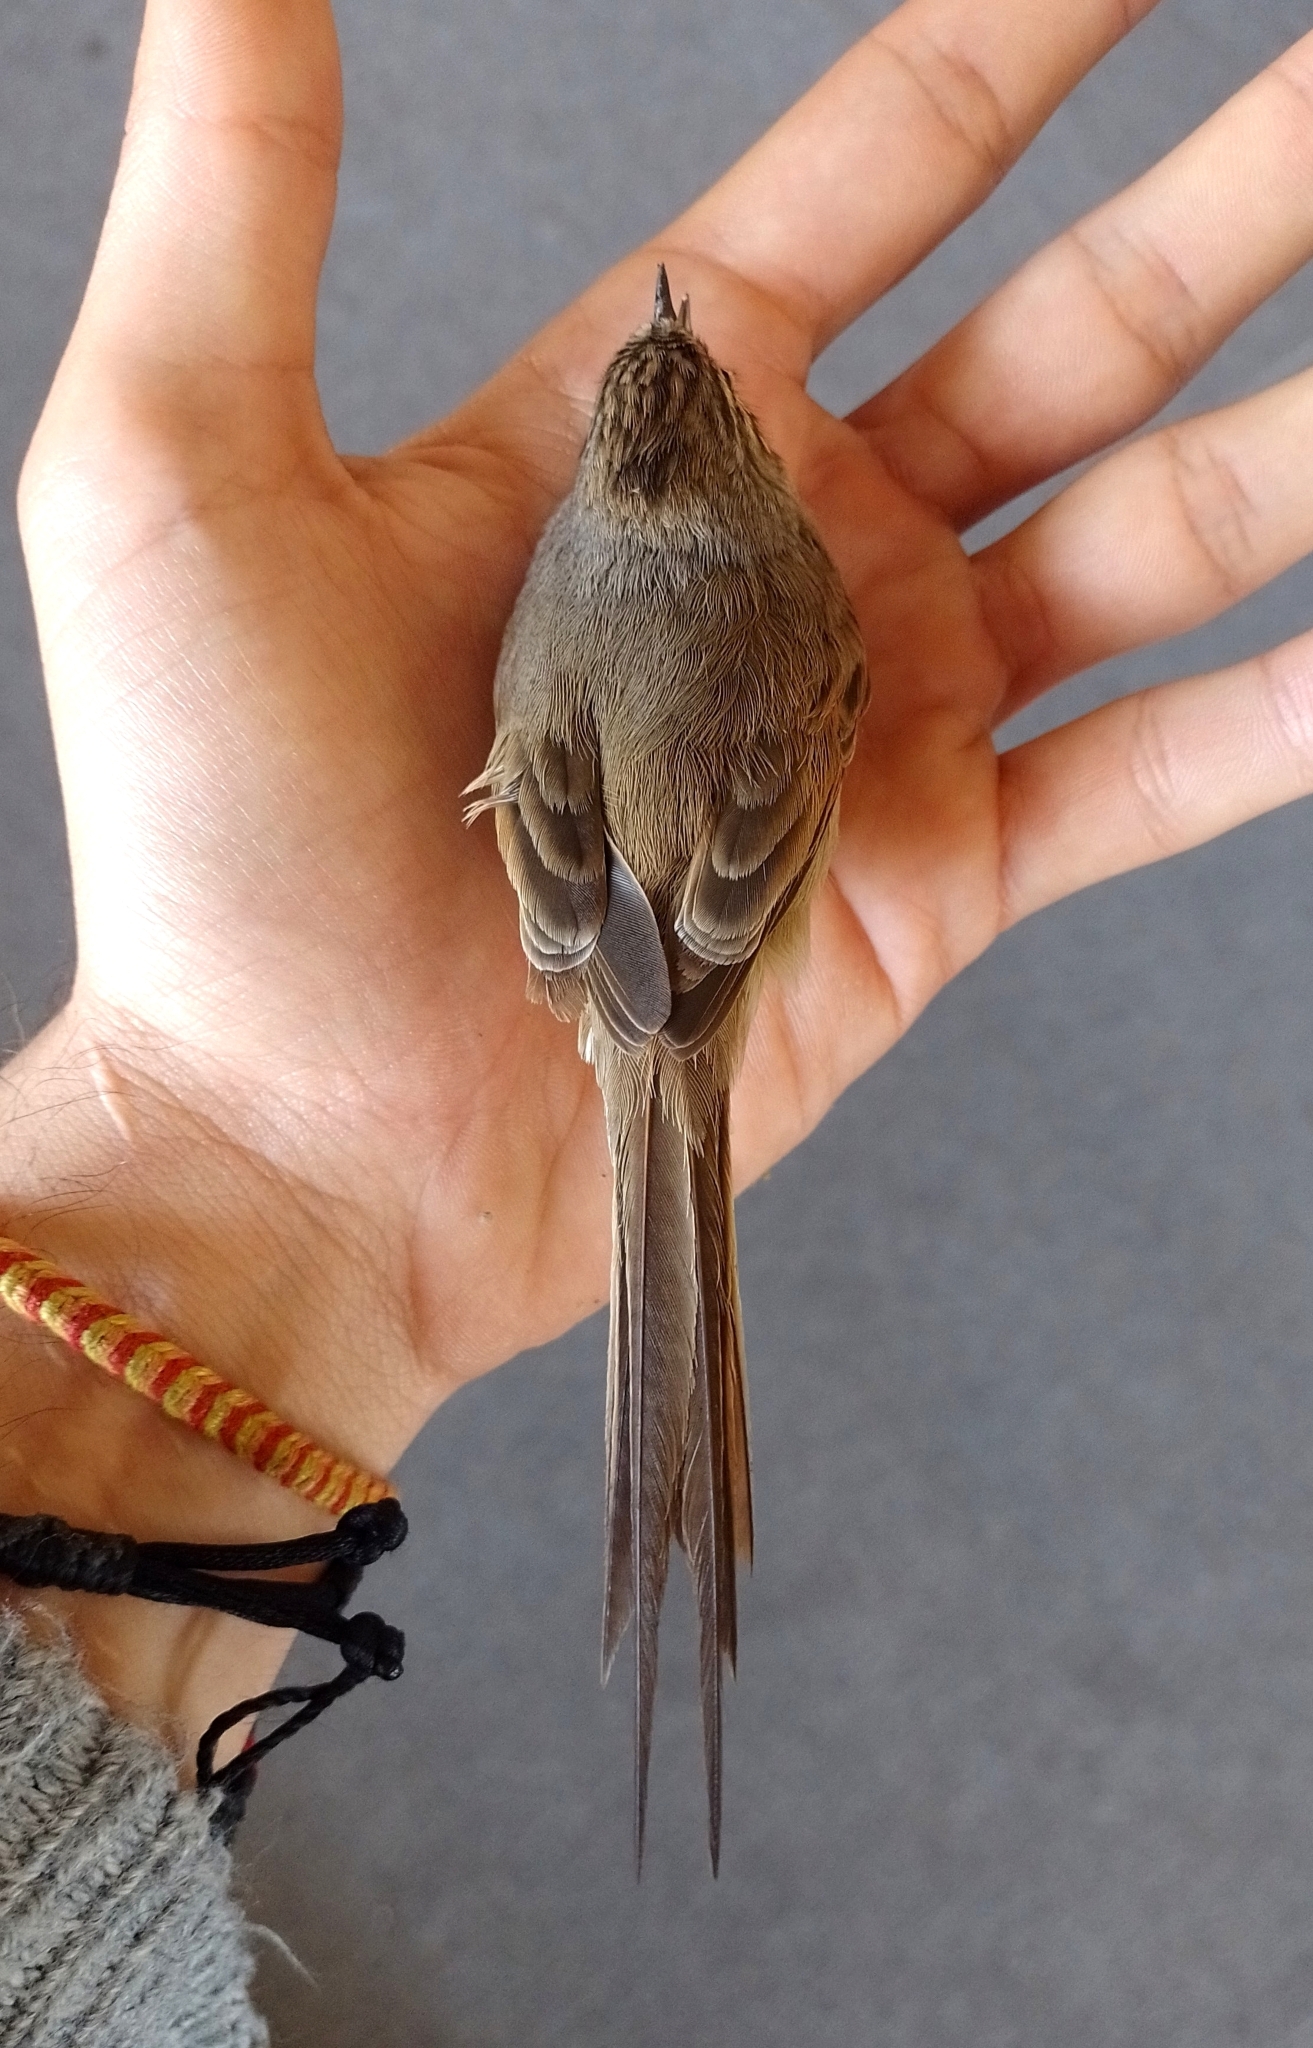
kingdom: Animalia
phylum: Chordata
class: Aves
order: Passeriformes
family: Furnariidae
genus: Leptasthenura
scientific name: Leptasthenura platensis
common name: Tufted tit-spinetail
